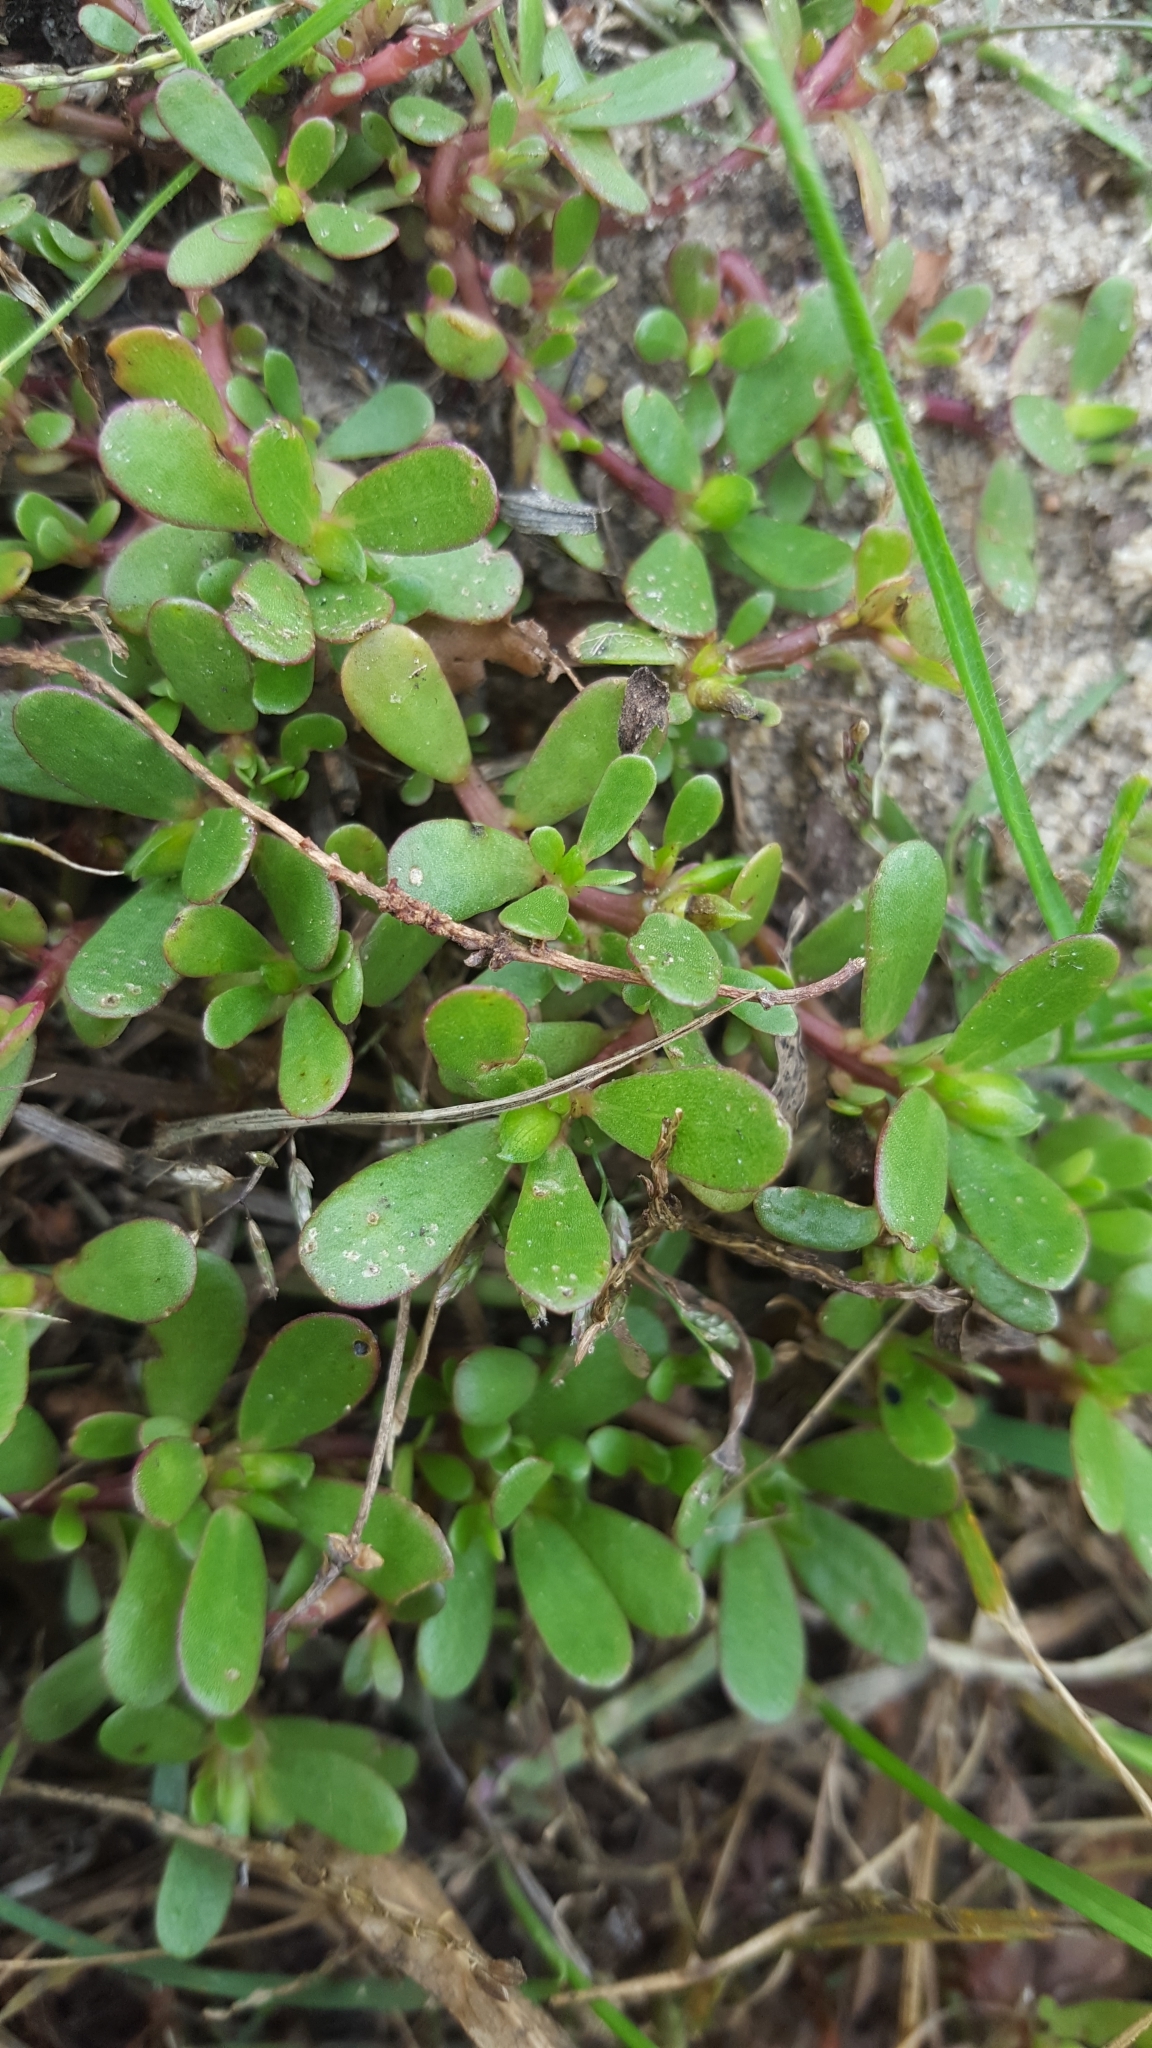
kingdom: Plantae
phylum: Tracheophyta
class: Magnoliopsida
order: Caryophyllales
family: Portulacaceae
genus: Portulaca
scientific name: Portulaca oleracea
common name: Common purslane
